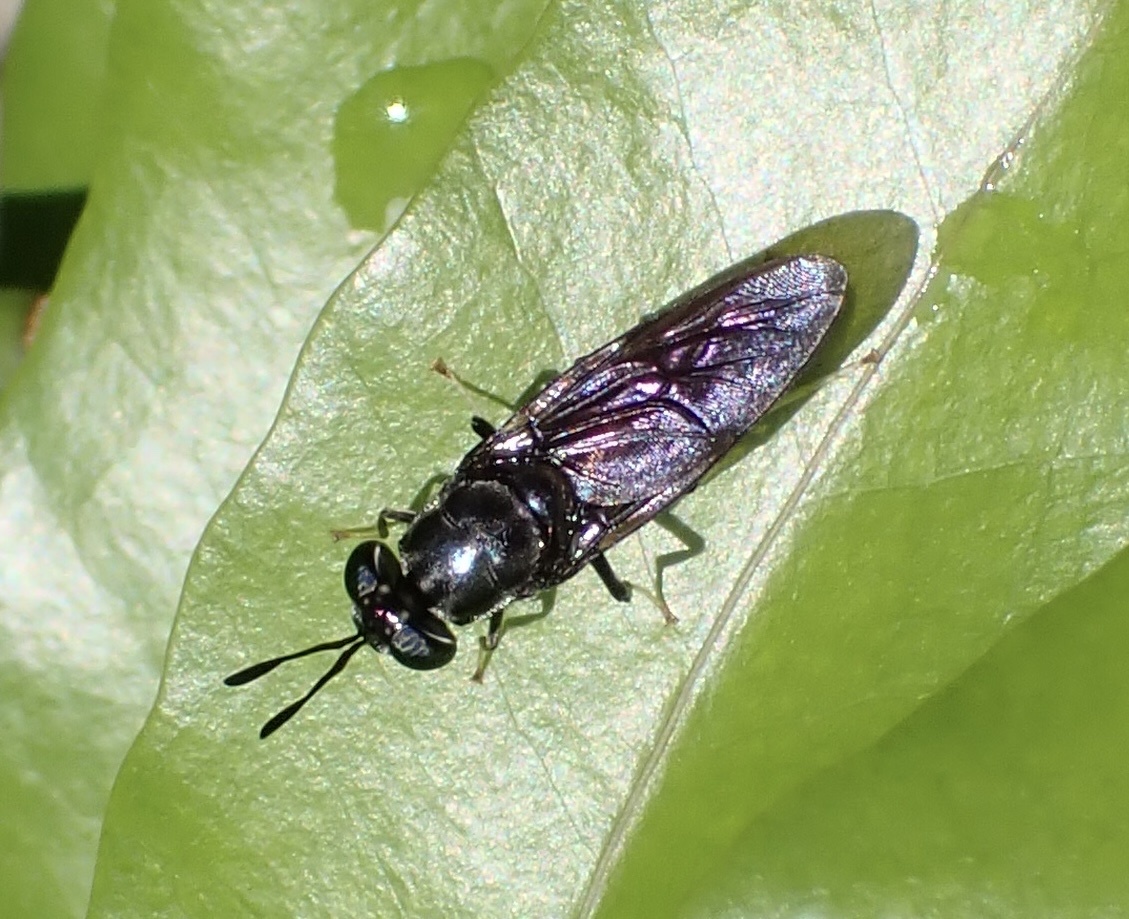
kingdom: Animalia
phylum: Arthropoda
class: Insecta
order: Diptera
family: Stratiomyidae
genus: Hermetia
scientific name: Hermetia illucens
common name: Black soldier fly
